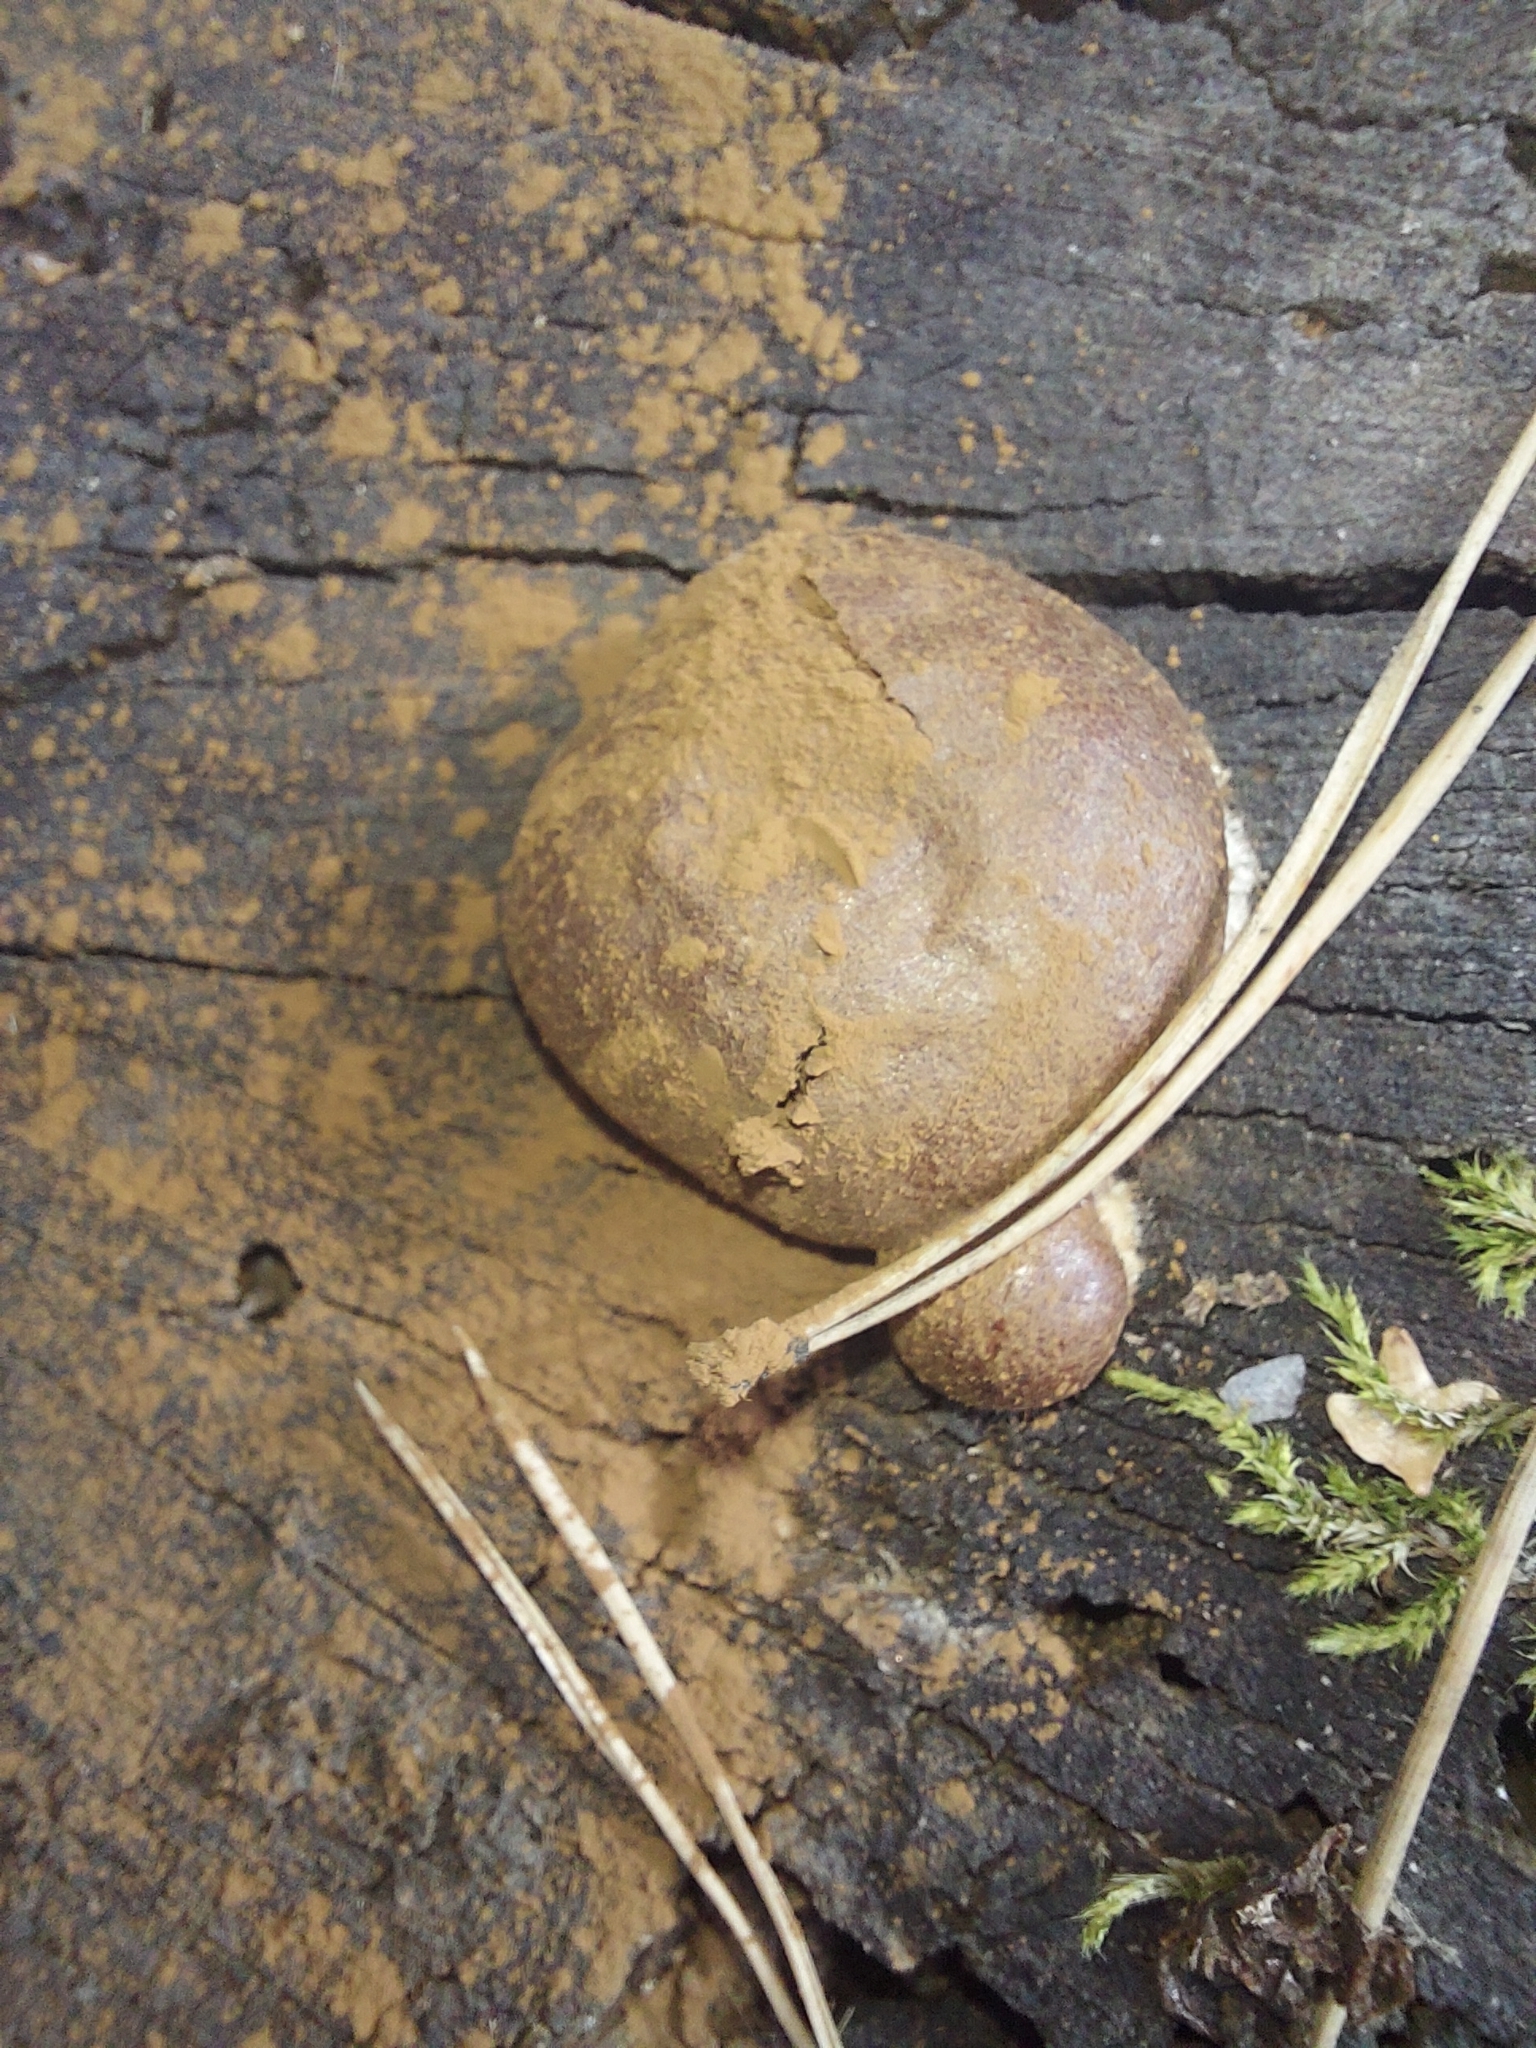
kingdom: Protozoa
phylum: Mycetozoa
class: Myxomycetes
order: Cribrariales
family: Tubiferaceae
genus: Reticularia
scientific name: Reticularia lycoperdon
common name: False puffball
